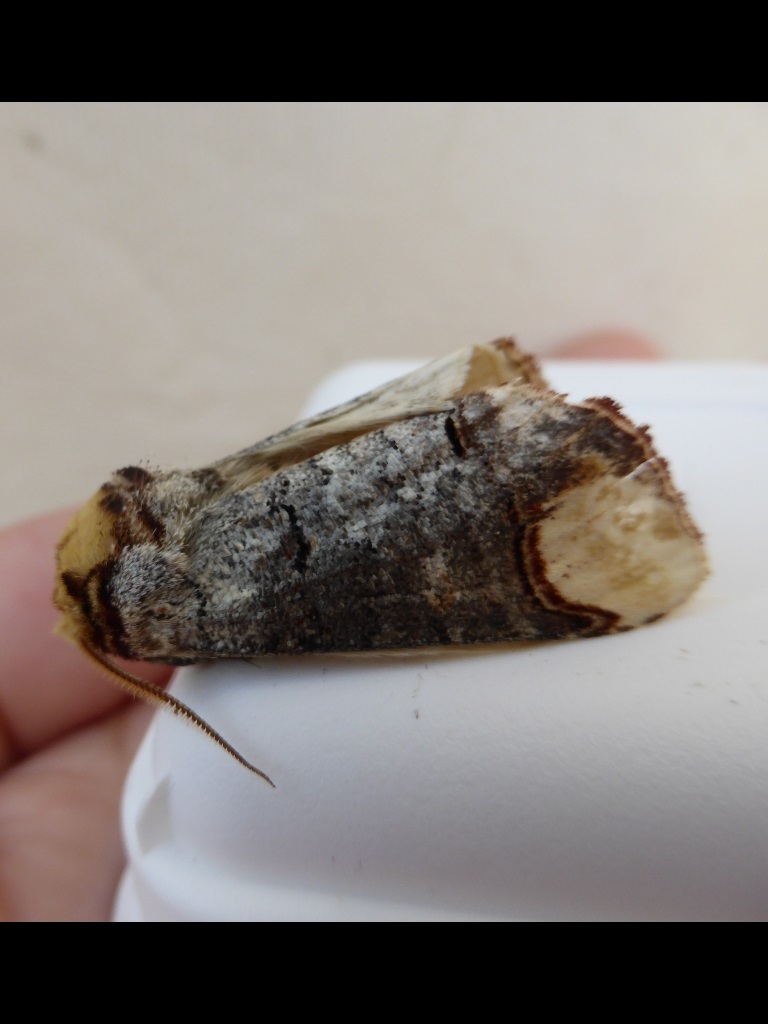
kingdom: Animalia
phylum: Arthropoda
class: Insecta
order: Lepidoptera
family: Notodontidae
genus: Phalera
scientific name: Phalera bucephala
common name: Buff-tip
